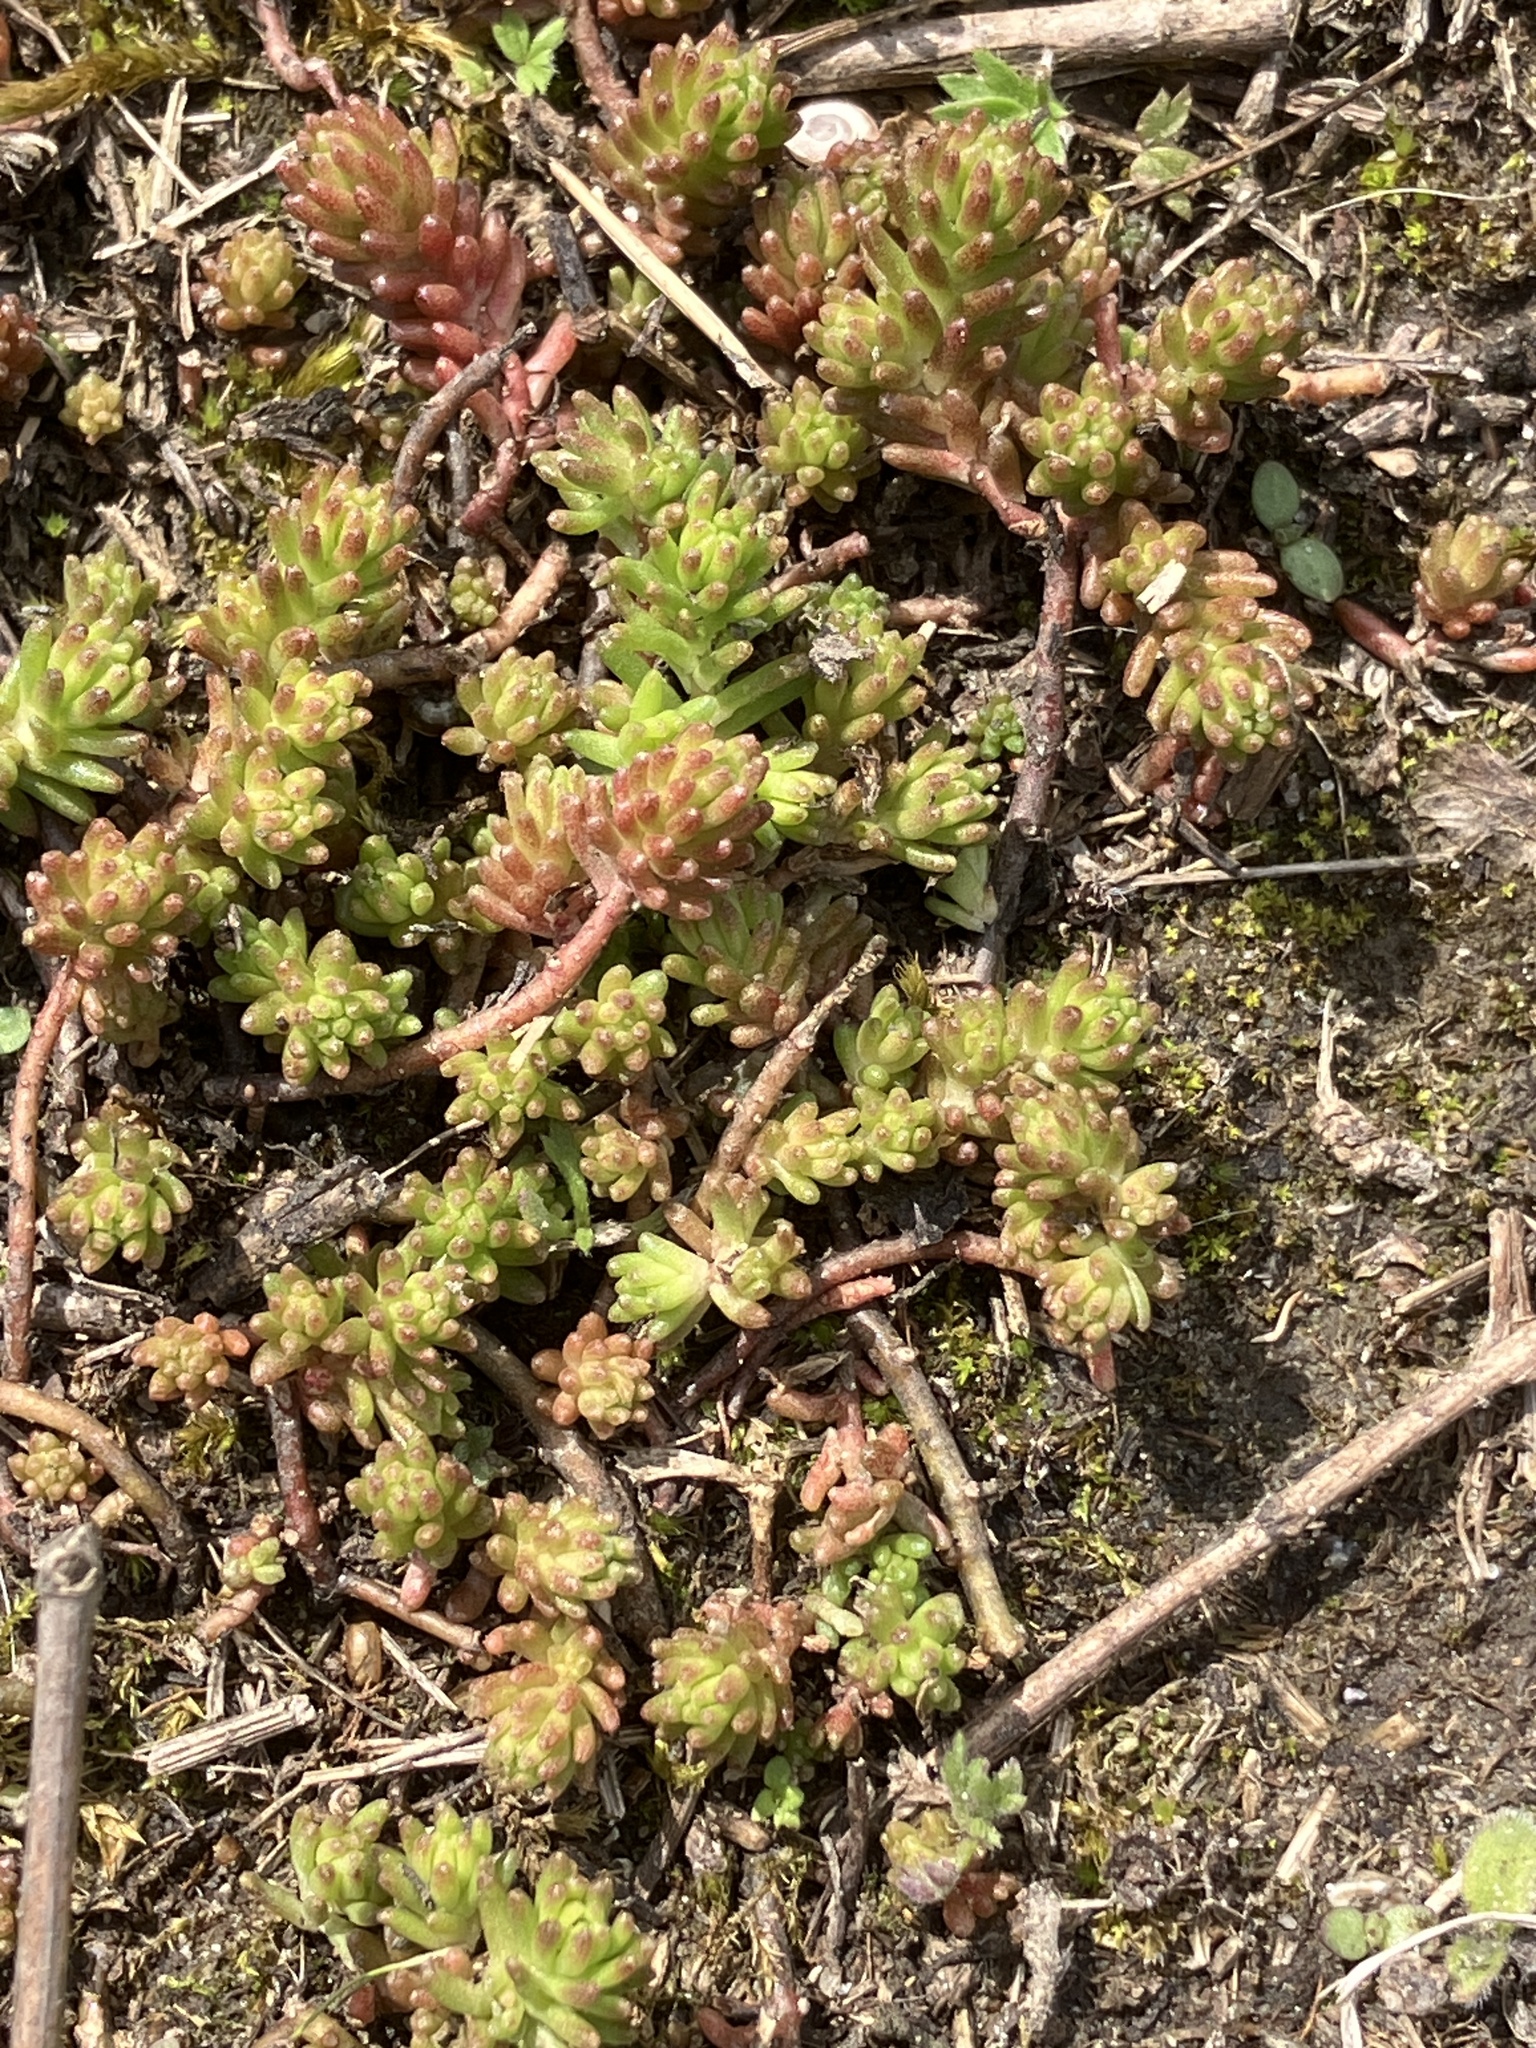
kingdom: Plantae
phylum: Tracheophyta
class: Magnoliopsida
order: Saxifragales
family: Crassulaceae
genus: Sedum
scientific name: Sedum sexangulare
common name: Tasteless stonecrop
